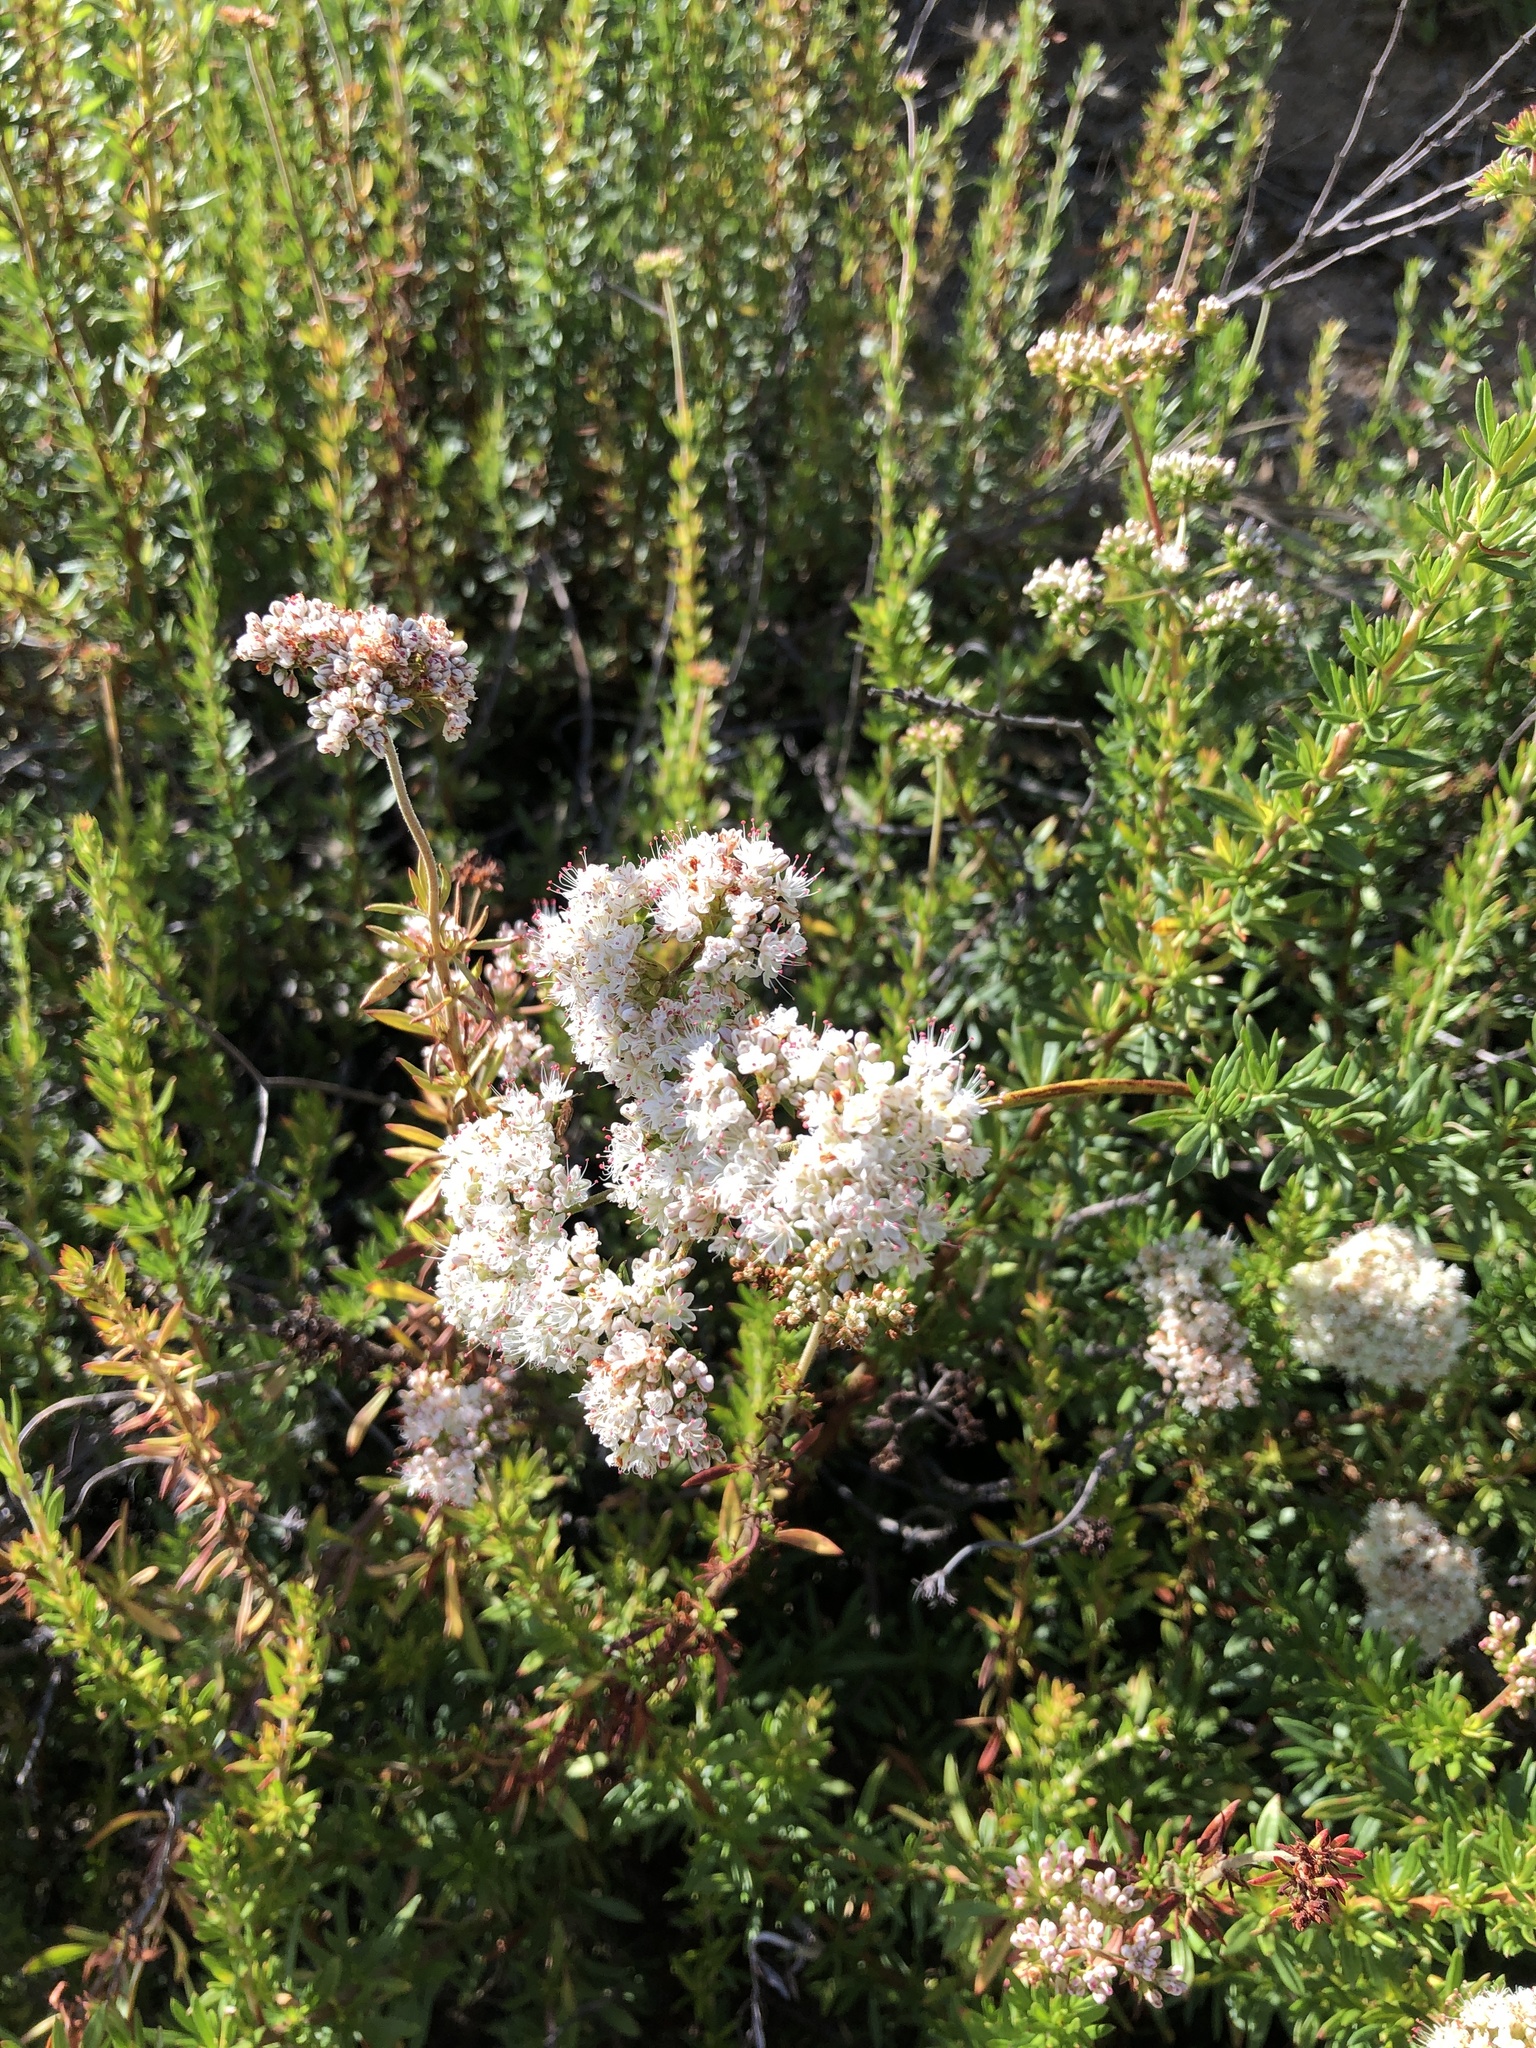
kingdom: Plantae
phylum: Tracheophyta
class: Magnoliopsida
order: Caryophyllales
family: Polygonaceae
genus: Eriogonum
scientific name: Eriogonum fasciculatum
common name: California wild buckwheat
